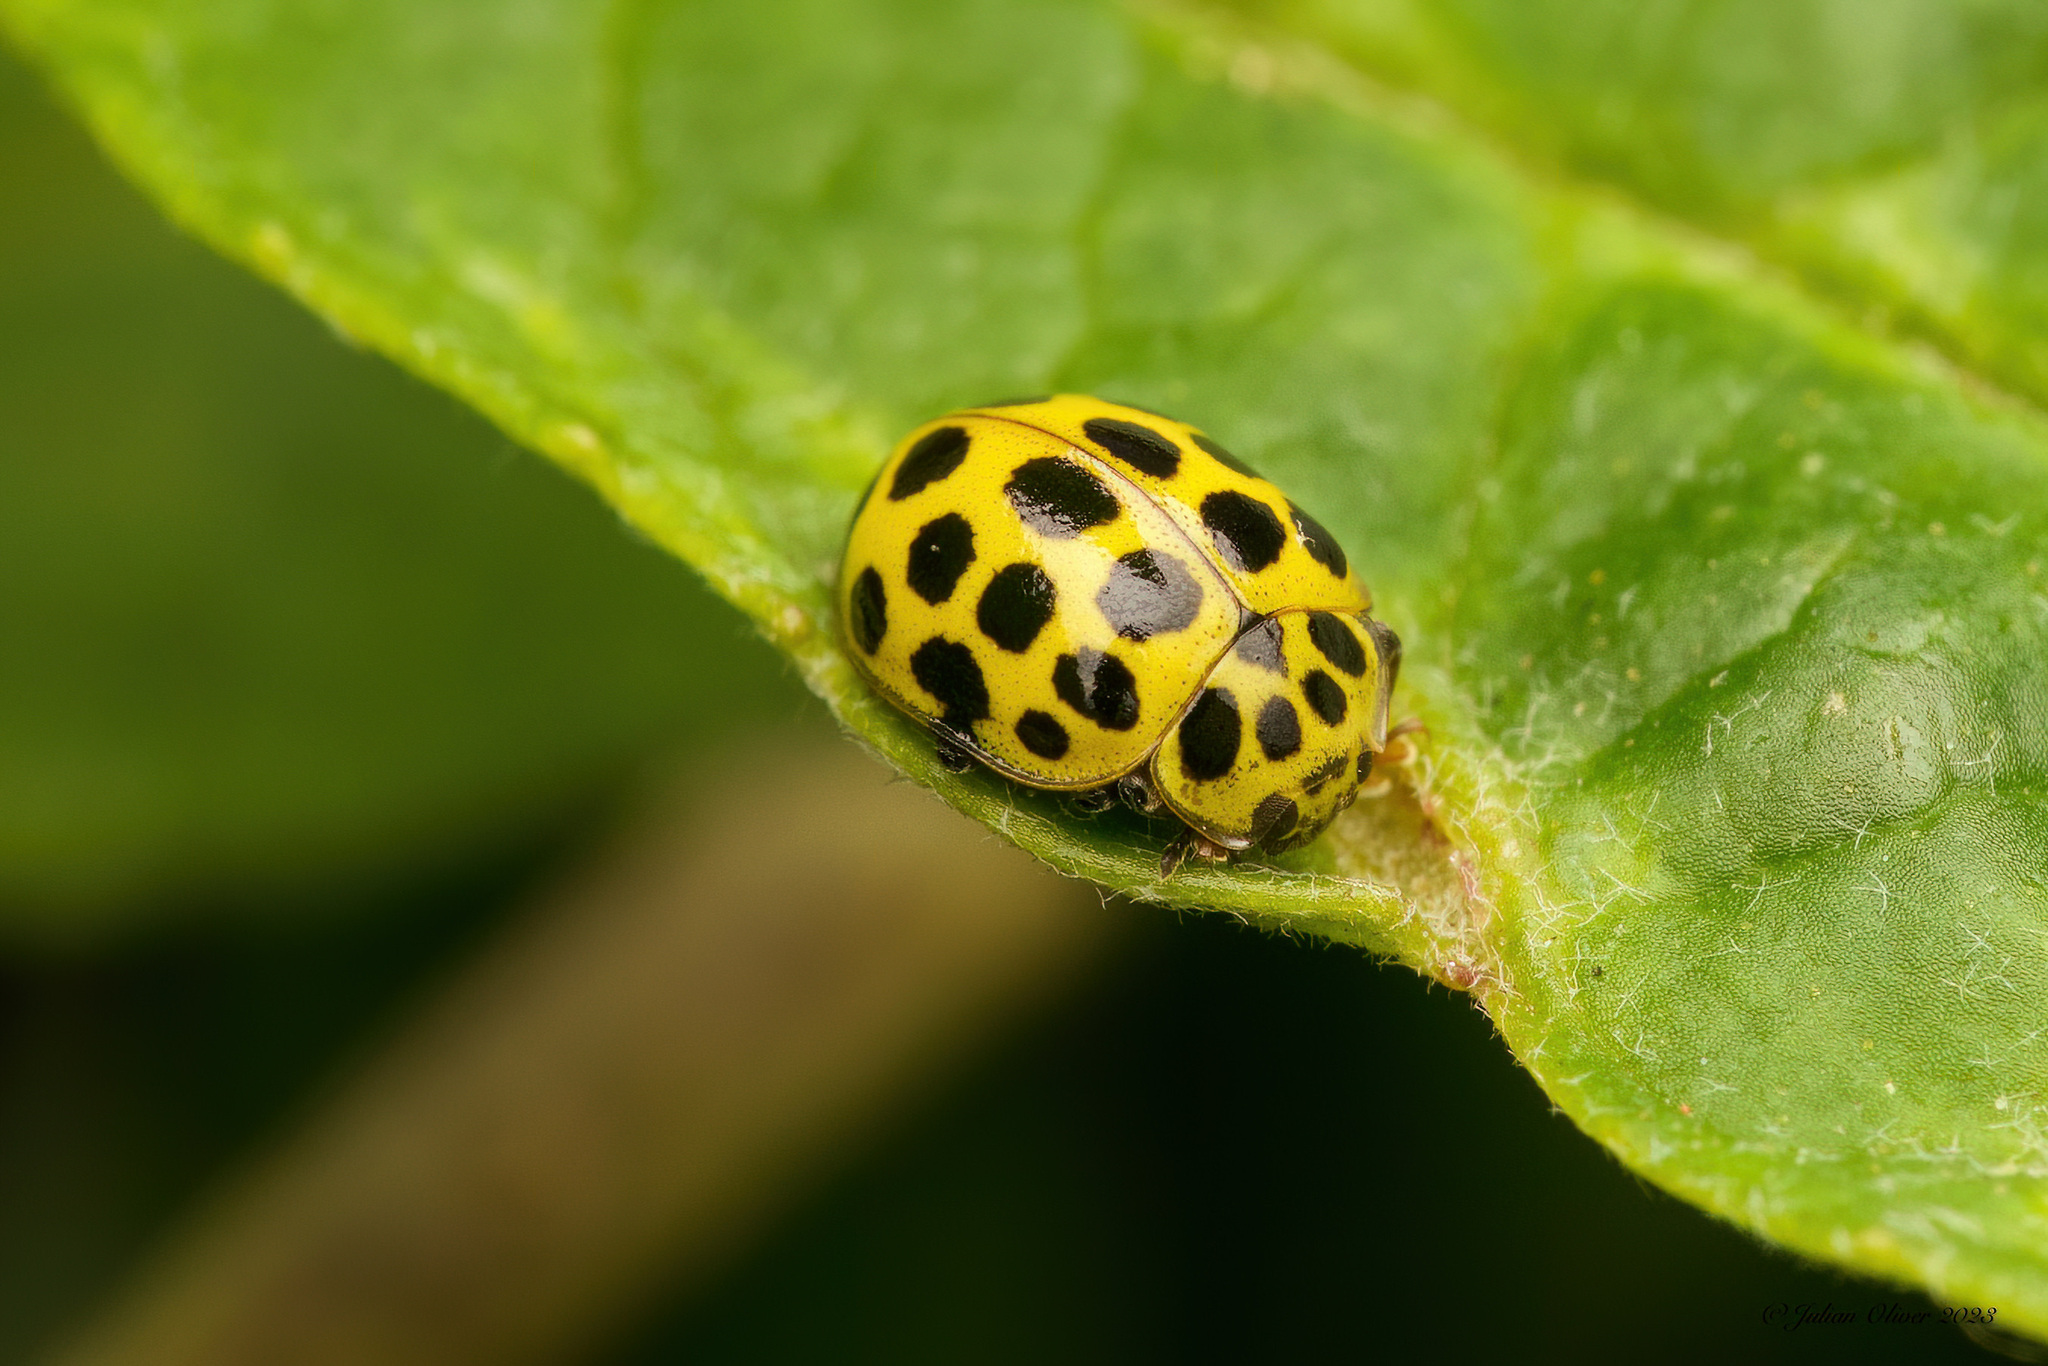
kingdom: Animalia
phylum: Arthropoda
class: Insecta
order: Coleoptera
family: Coccinellidae
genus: Psyllobora
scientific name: Psyllobora vigintiduopunctata
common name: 22-spot ladybird
